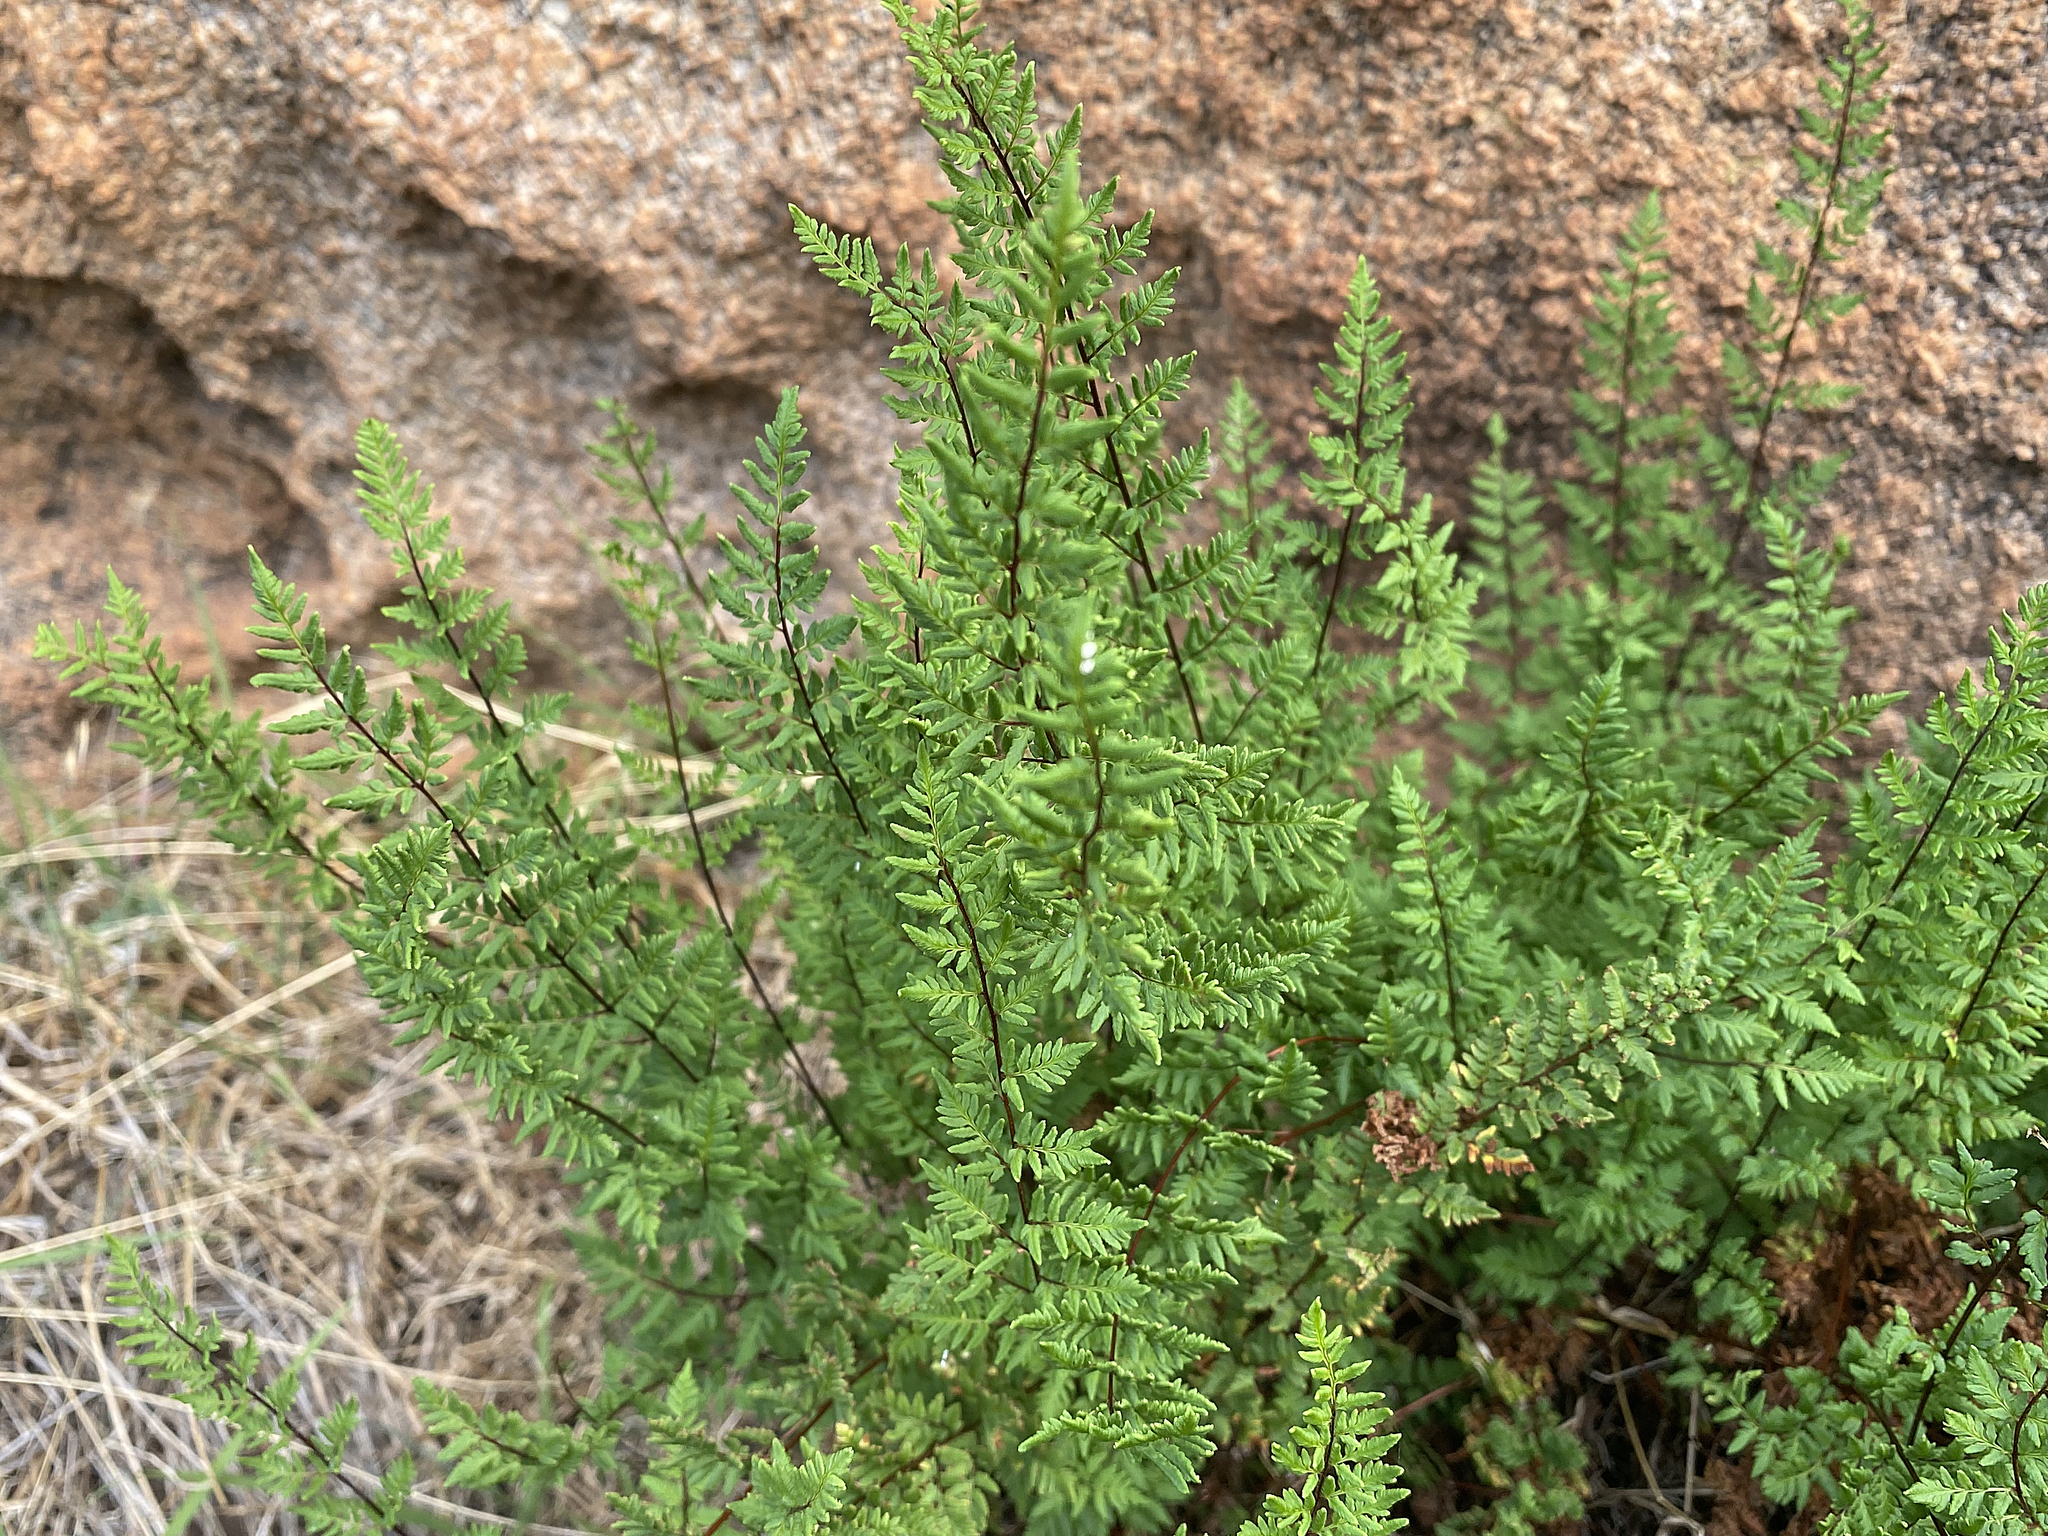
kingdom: Plantae
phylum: Tracheophyta
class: Polypodiopsida
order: Polypodiales
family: Pteridaceae
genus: Cheilanthes
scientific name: Cheilanthes sieberi
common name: Mulga fern
